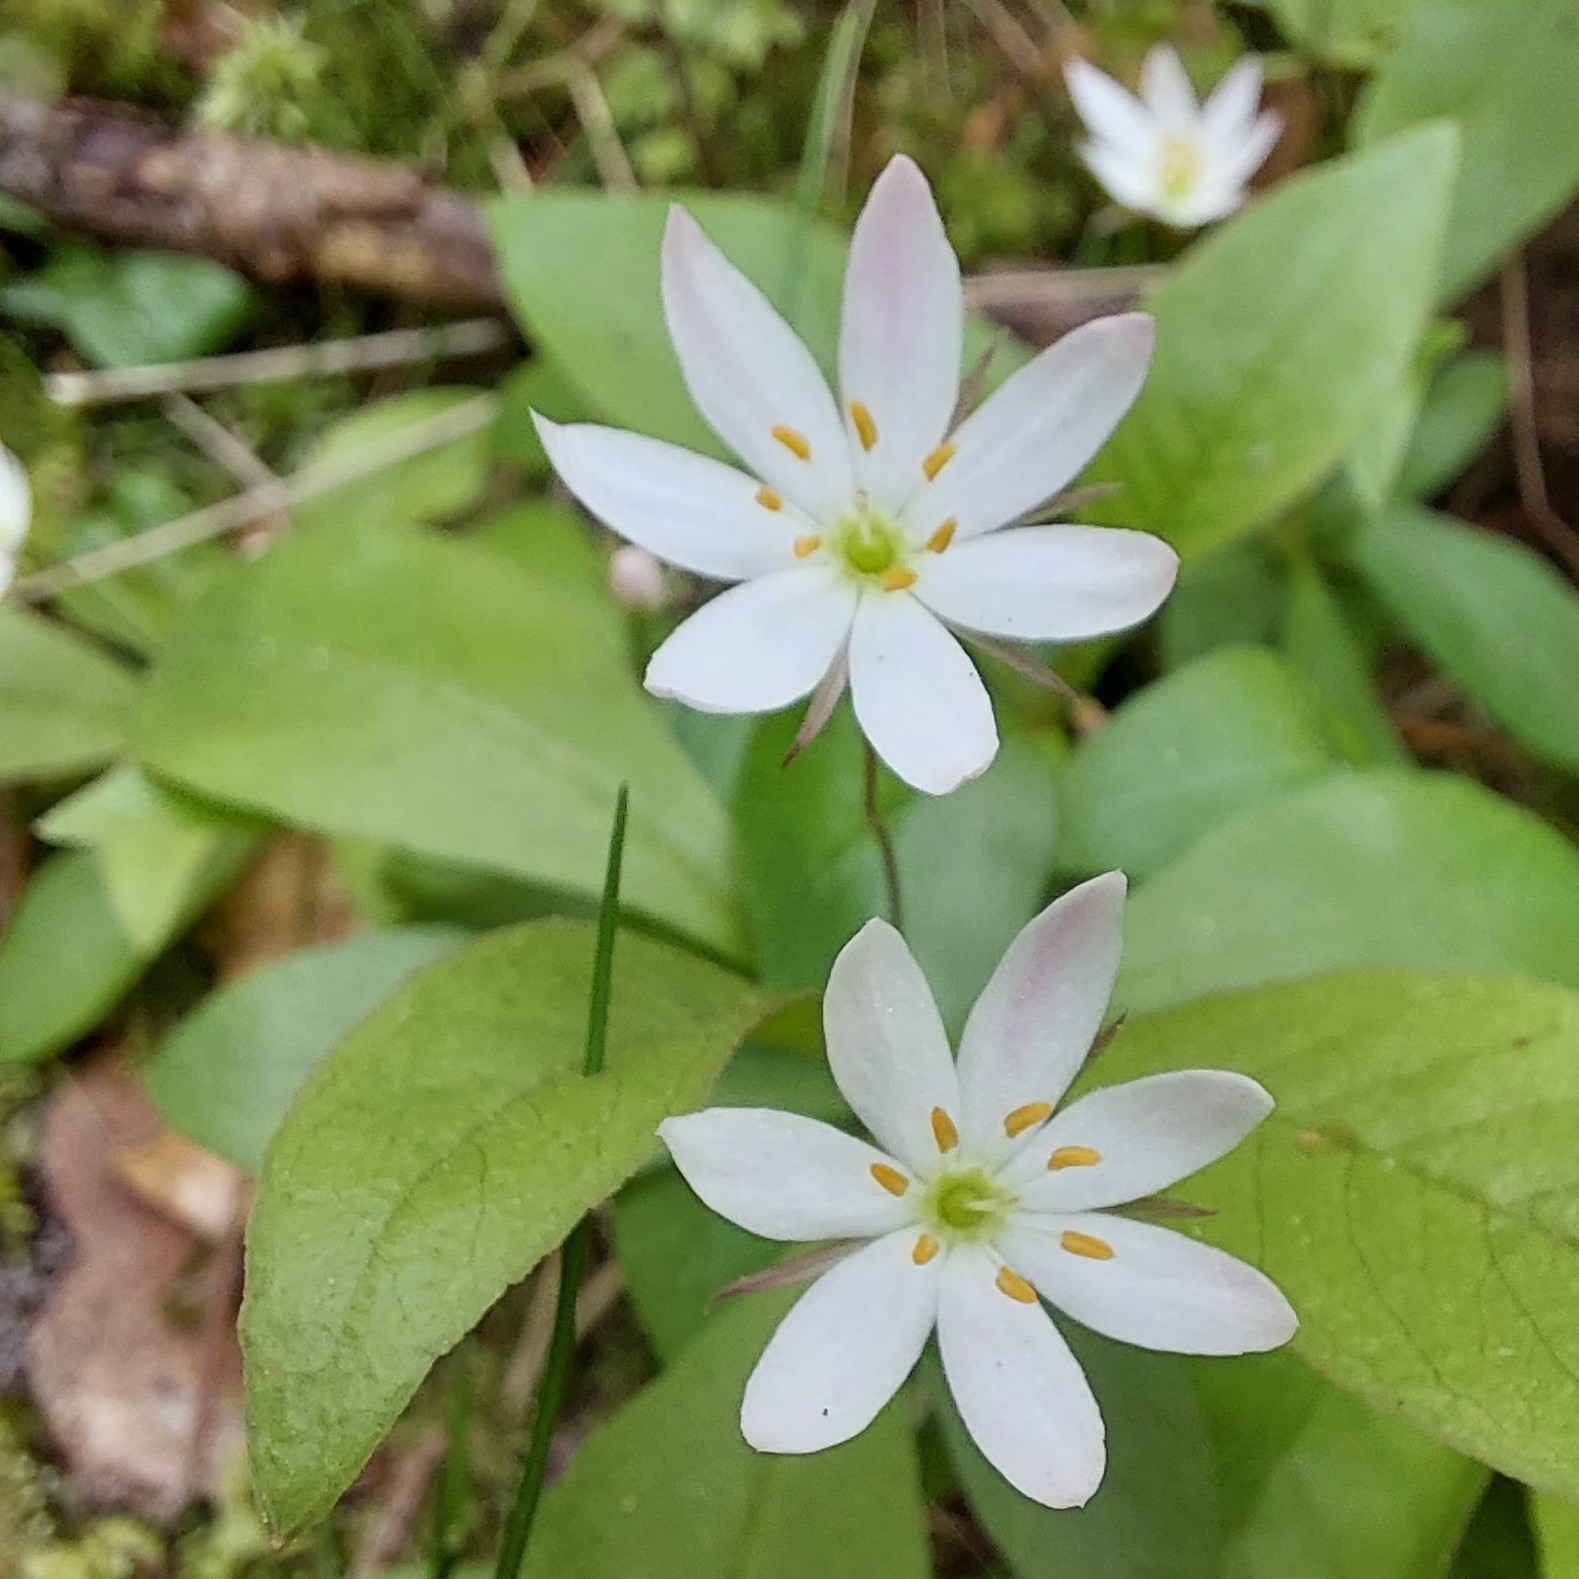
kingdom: Plantae
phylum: Tracheophyta
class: Magnoliopsida
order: Ericales
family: Primulaceae
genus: Lysimachia
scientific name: Lysimachia europaea
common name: Arctic starflower
